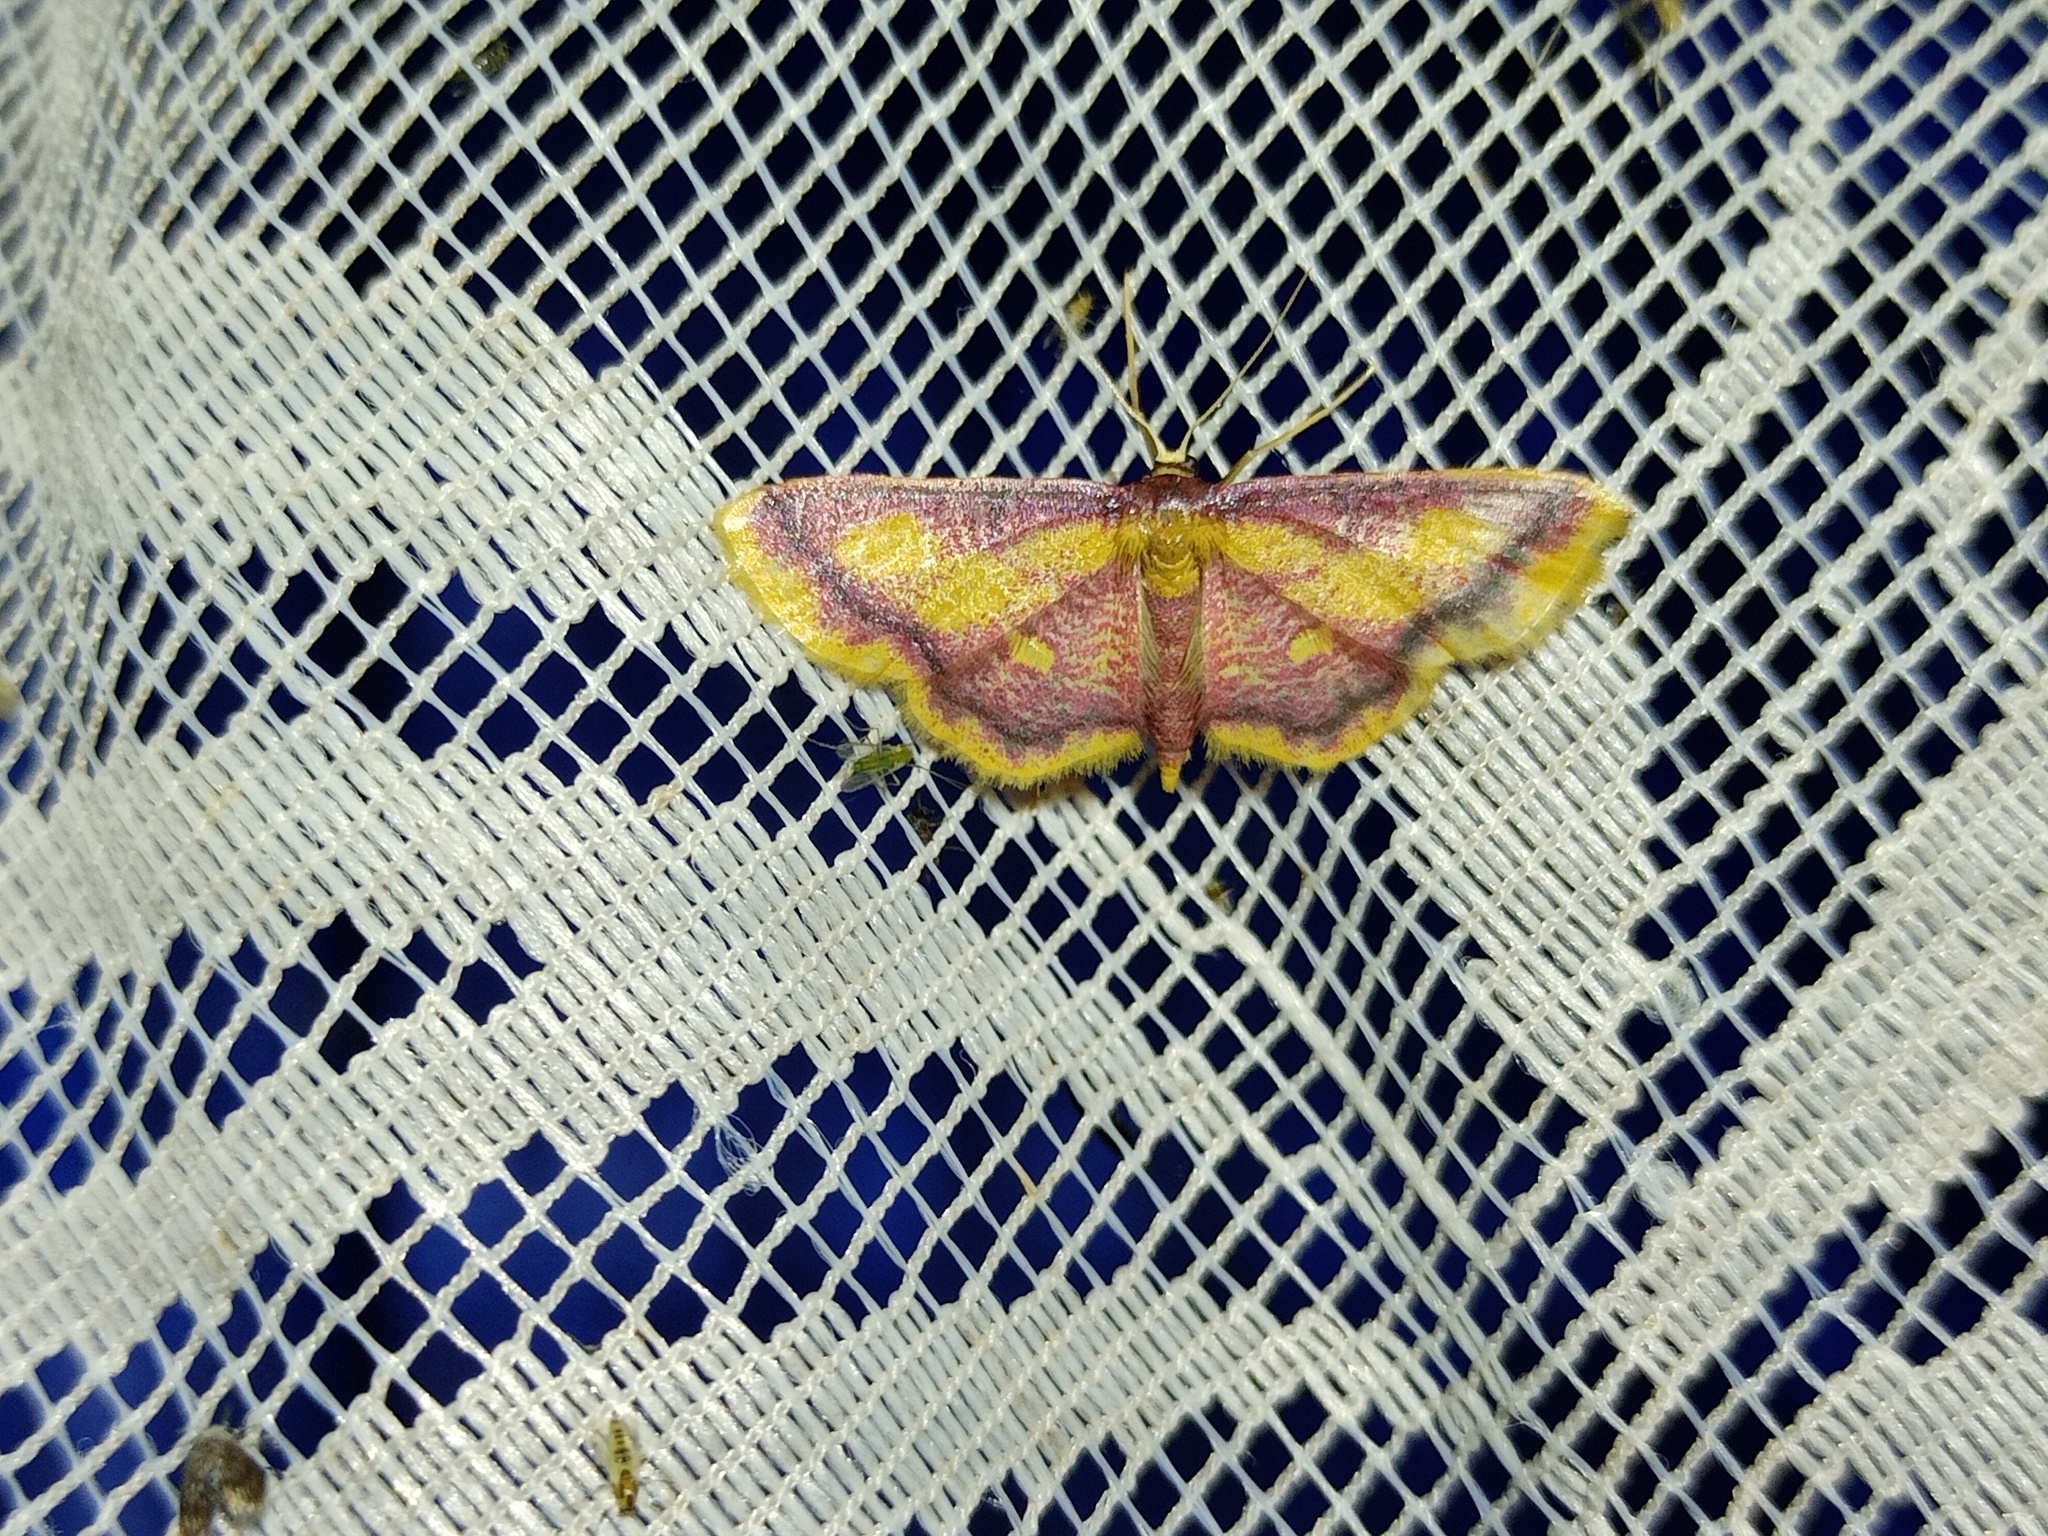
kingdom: Animalia
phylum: Arthropoda
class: Insecta
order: Lepidoptera
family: Geometridae
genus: Idaea
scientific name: Idaea muricata
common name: Purple-bordered gold
